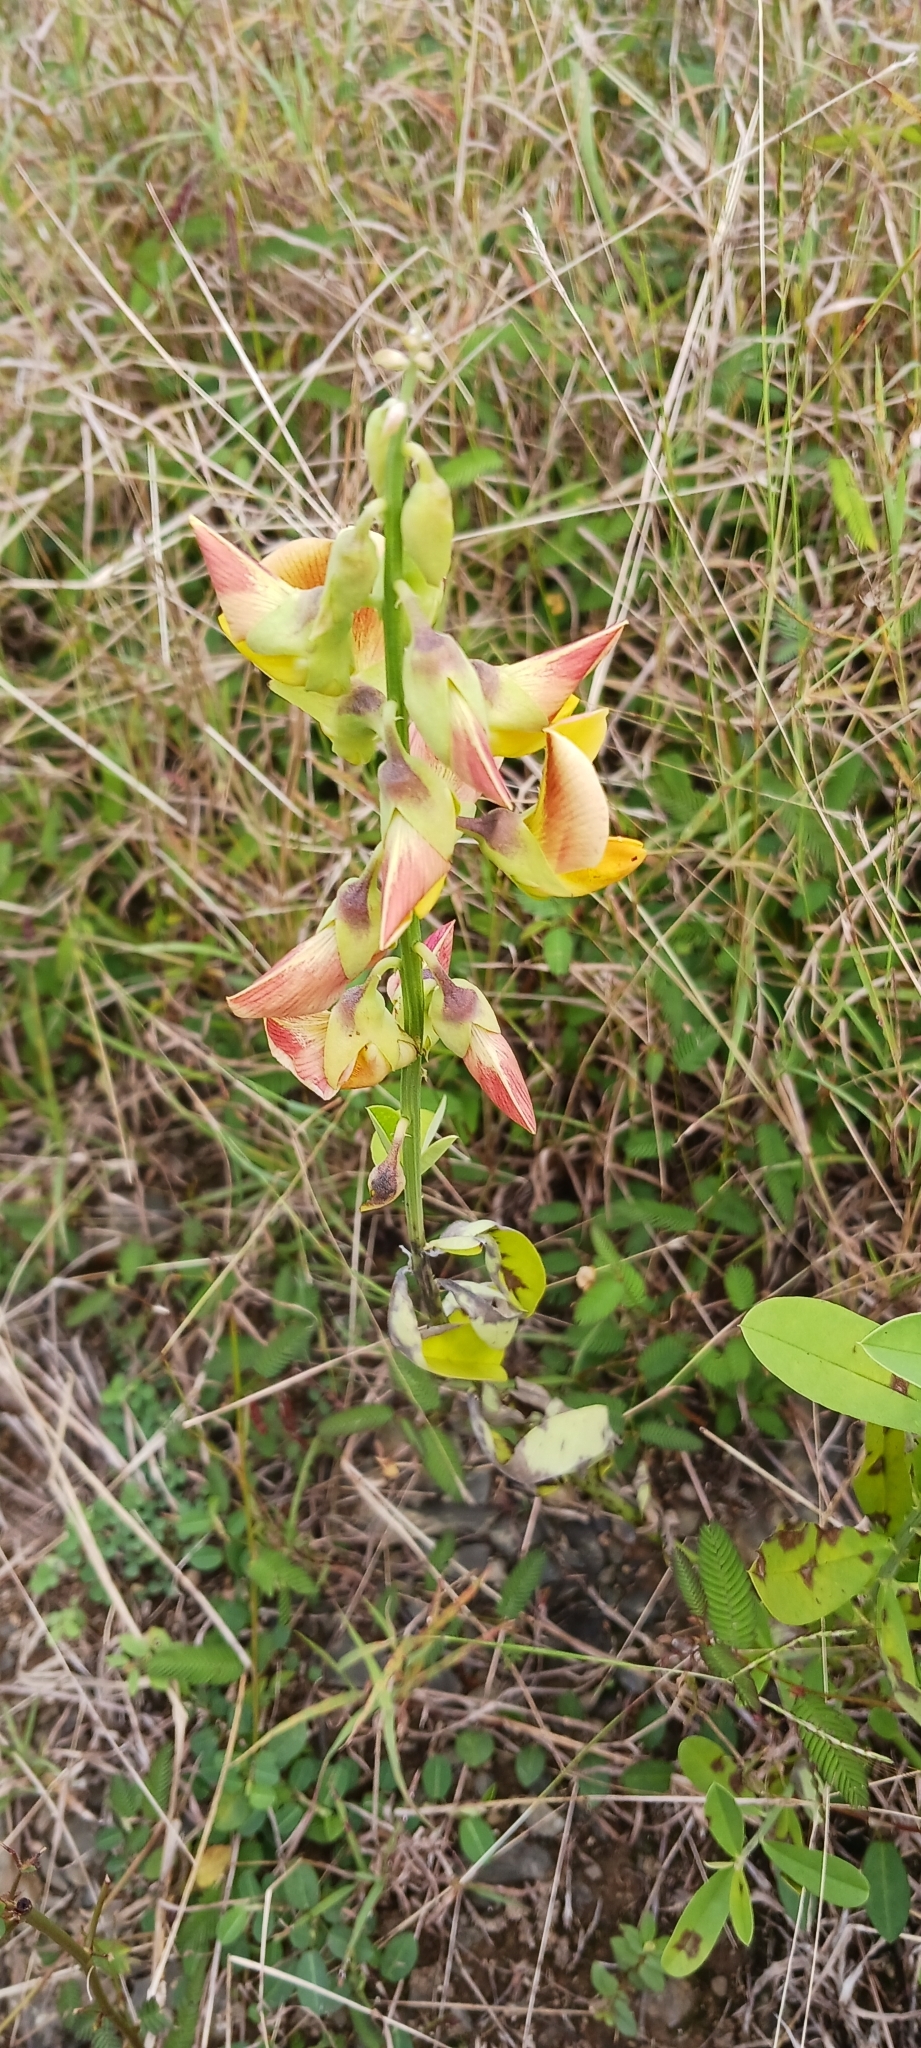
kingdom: Plantae
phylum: Tracheophyta
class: Magnoliopsida
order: Fabales
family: Fabaceae
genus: Crotalaria
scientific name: Crotalaria retusa
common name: Rattleweed
